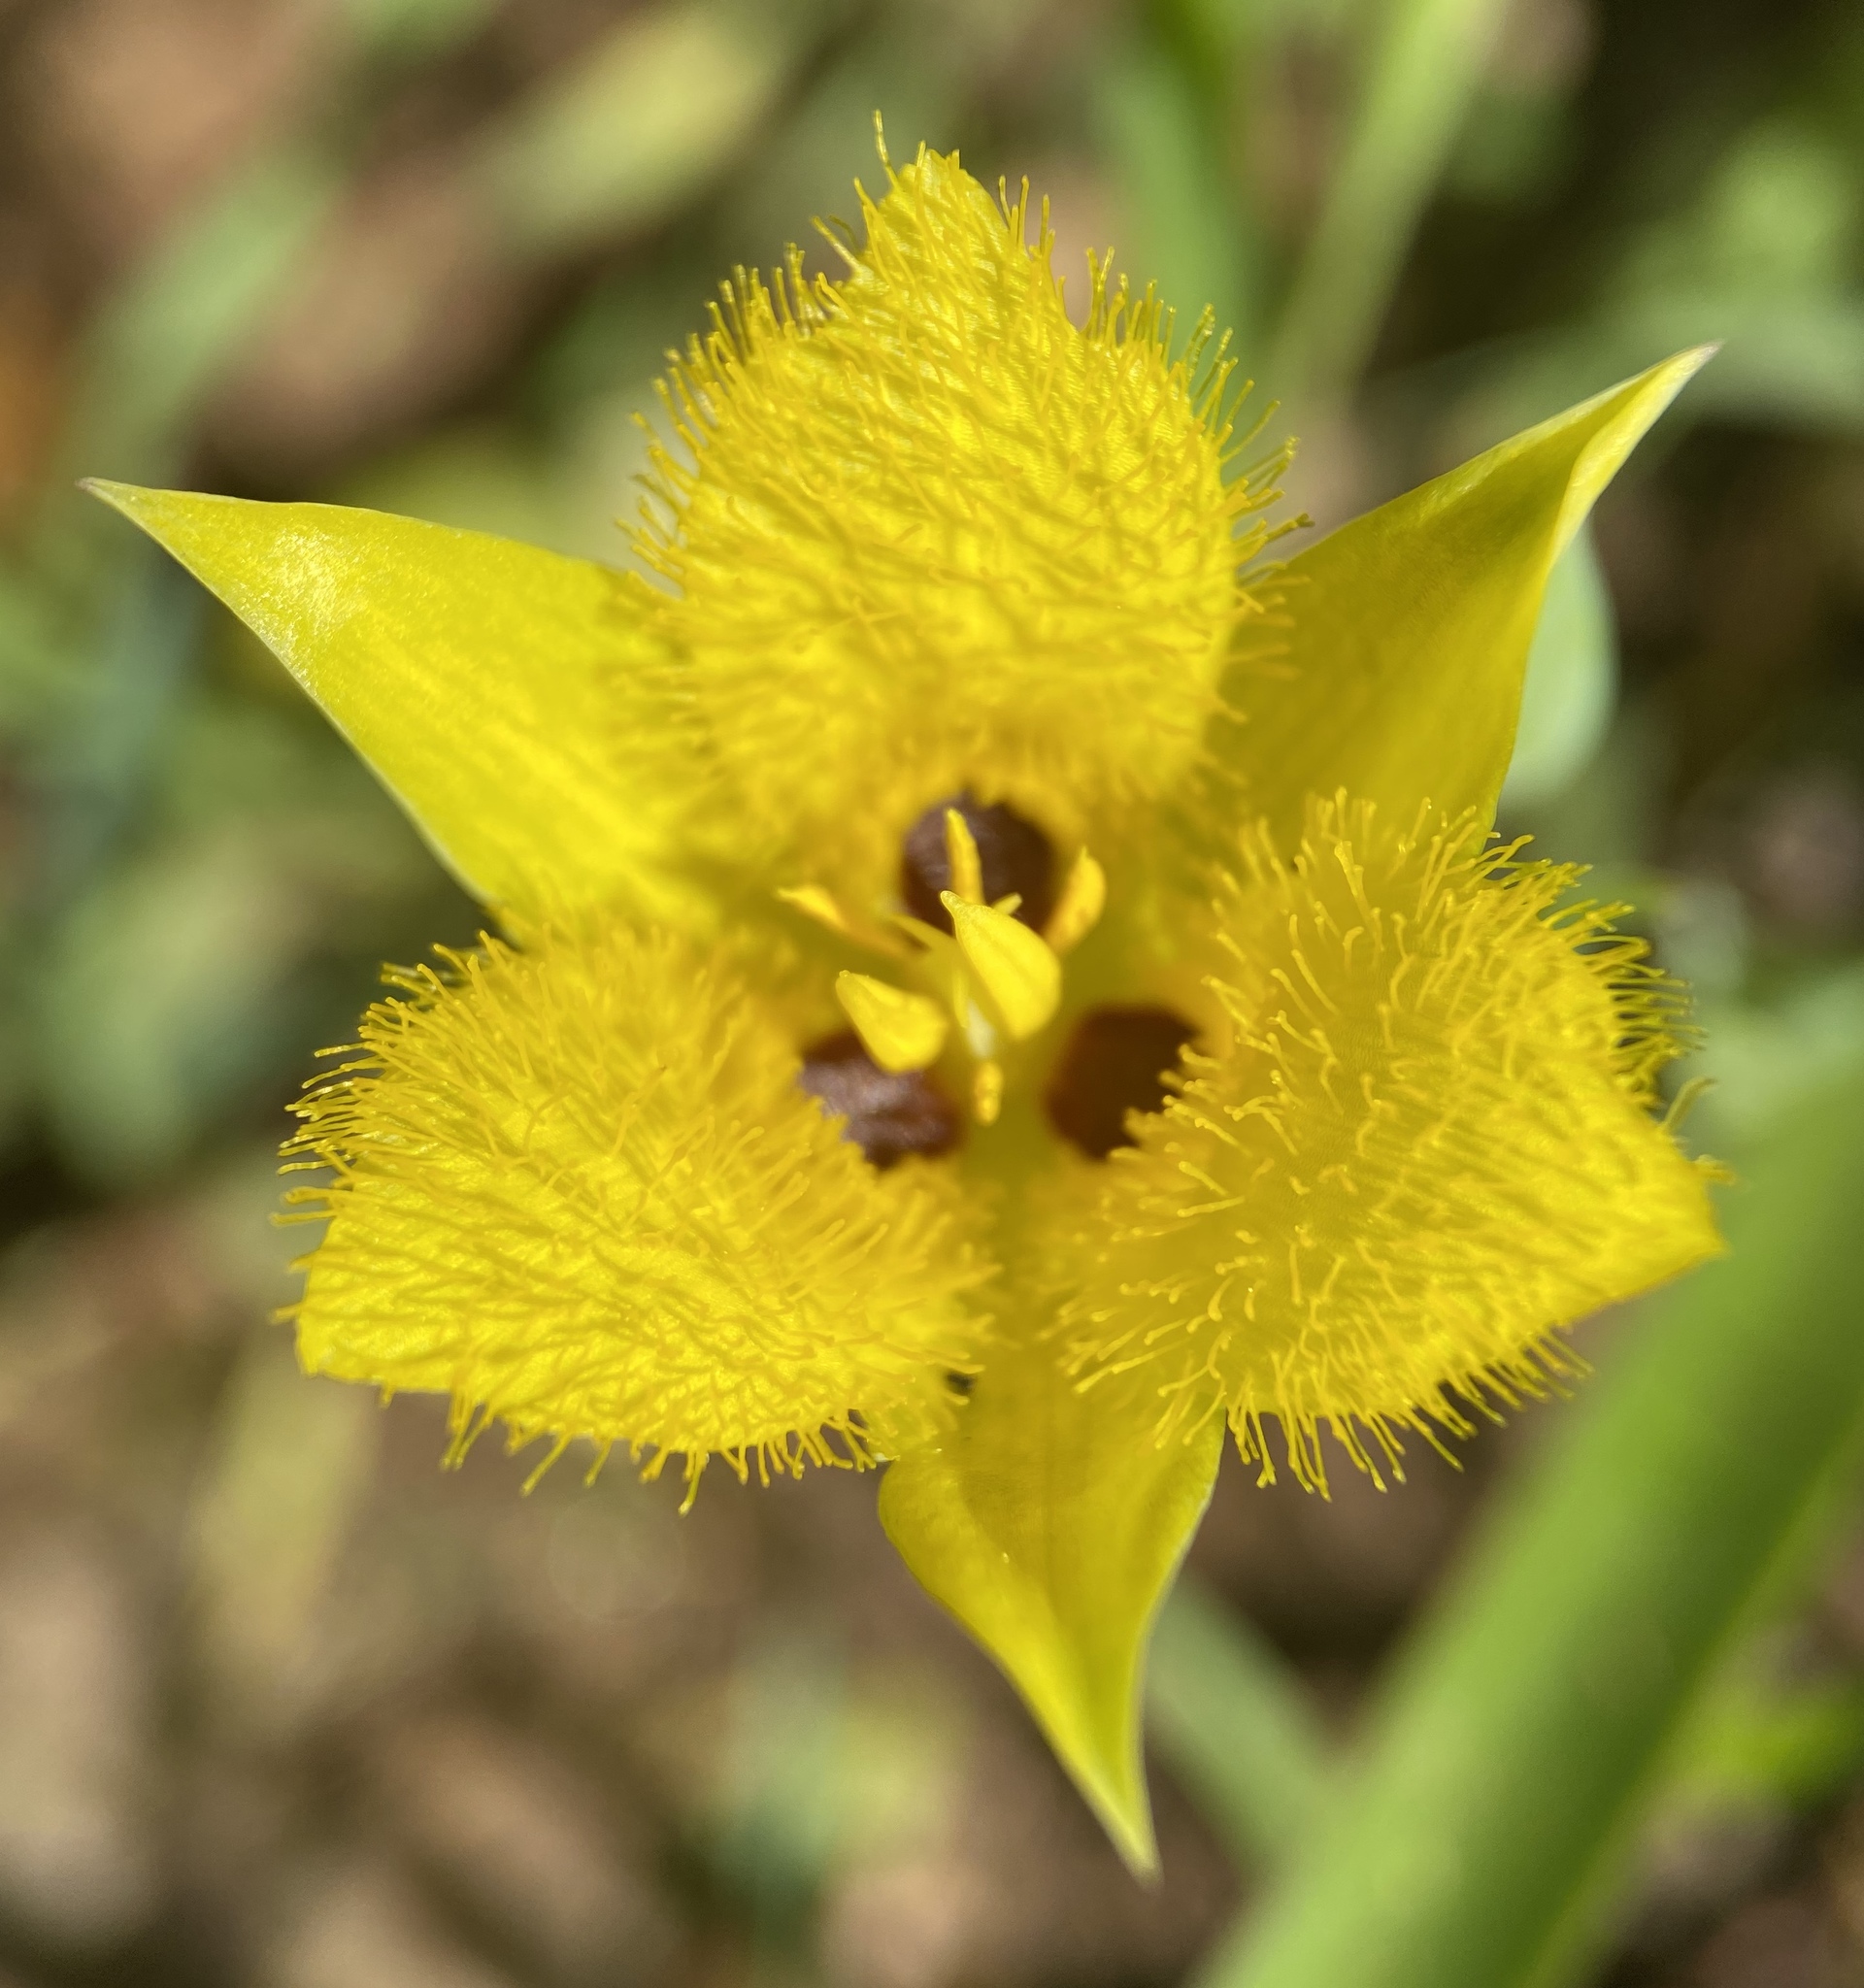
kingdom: Plantae
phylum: Tracheophyta
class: Liliopsida
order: Liliales
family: Liliaceae
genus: Calochortus
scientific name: Calochortus monophyllus
